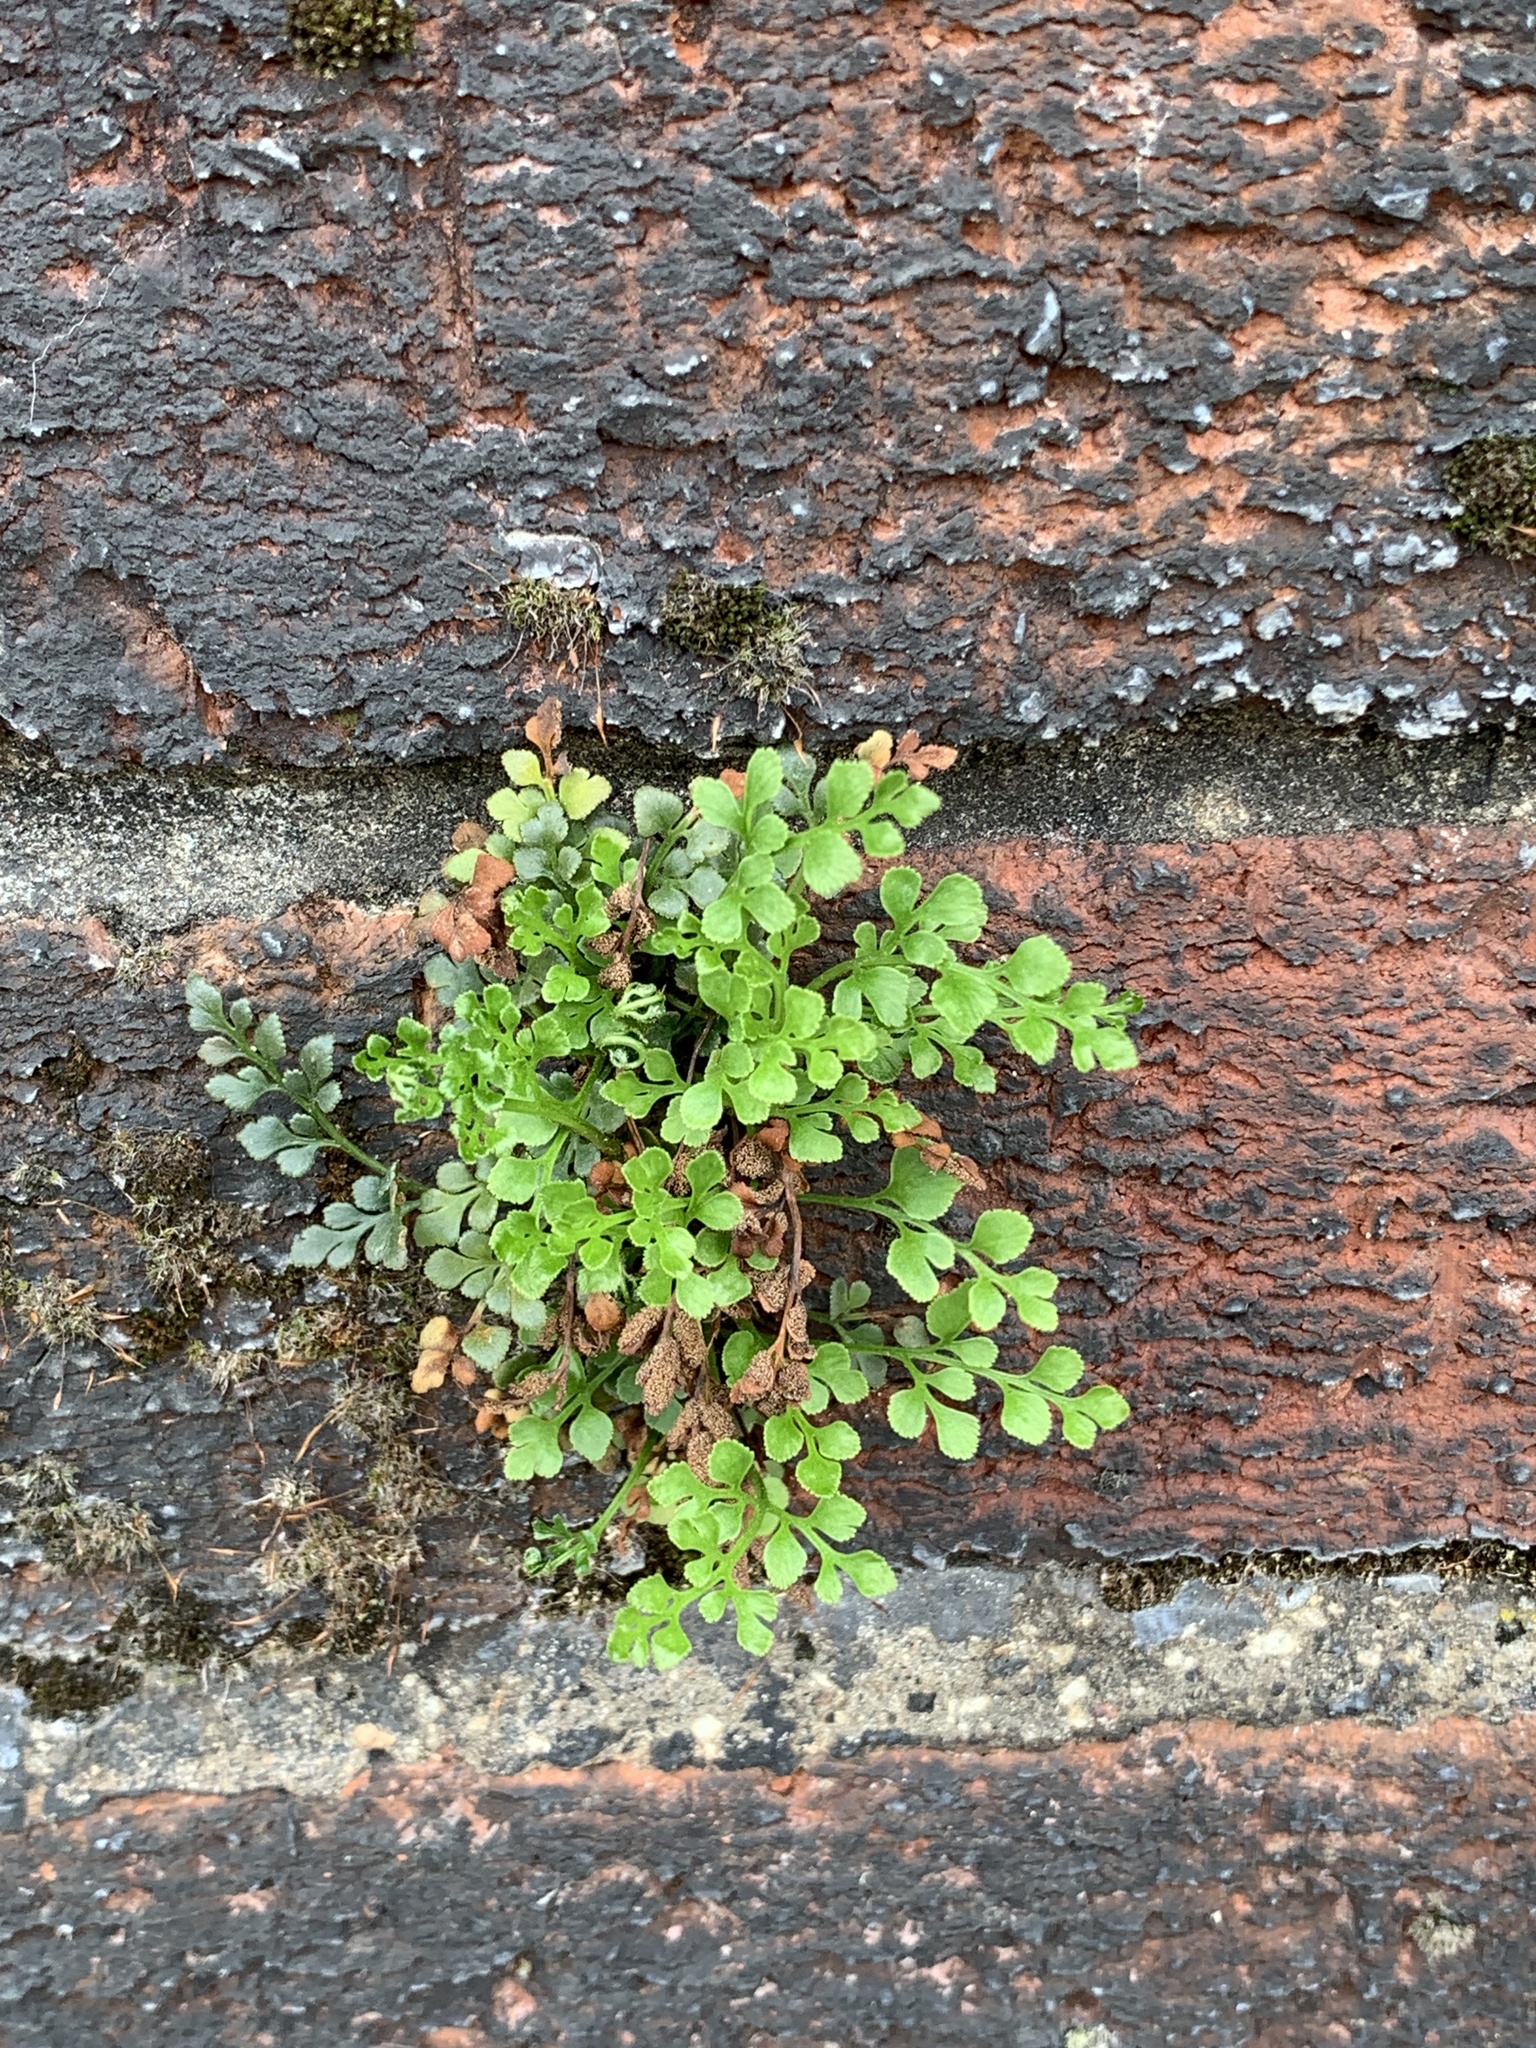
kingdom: Plantae
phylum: Tracheophyta
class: Polypodiopsida
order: Polypodiales
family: Aspleniaceae
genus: Asplenium
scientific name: Asplenium ruta-muraria
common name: Wall-rue
